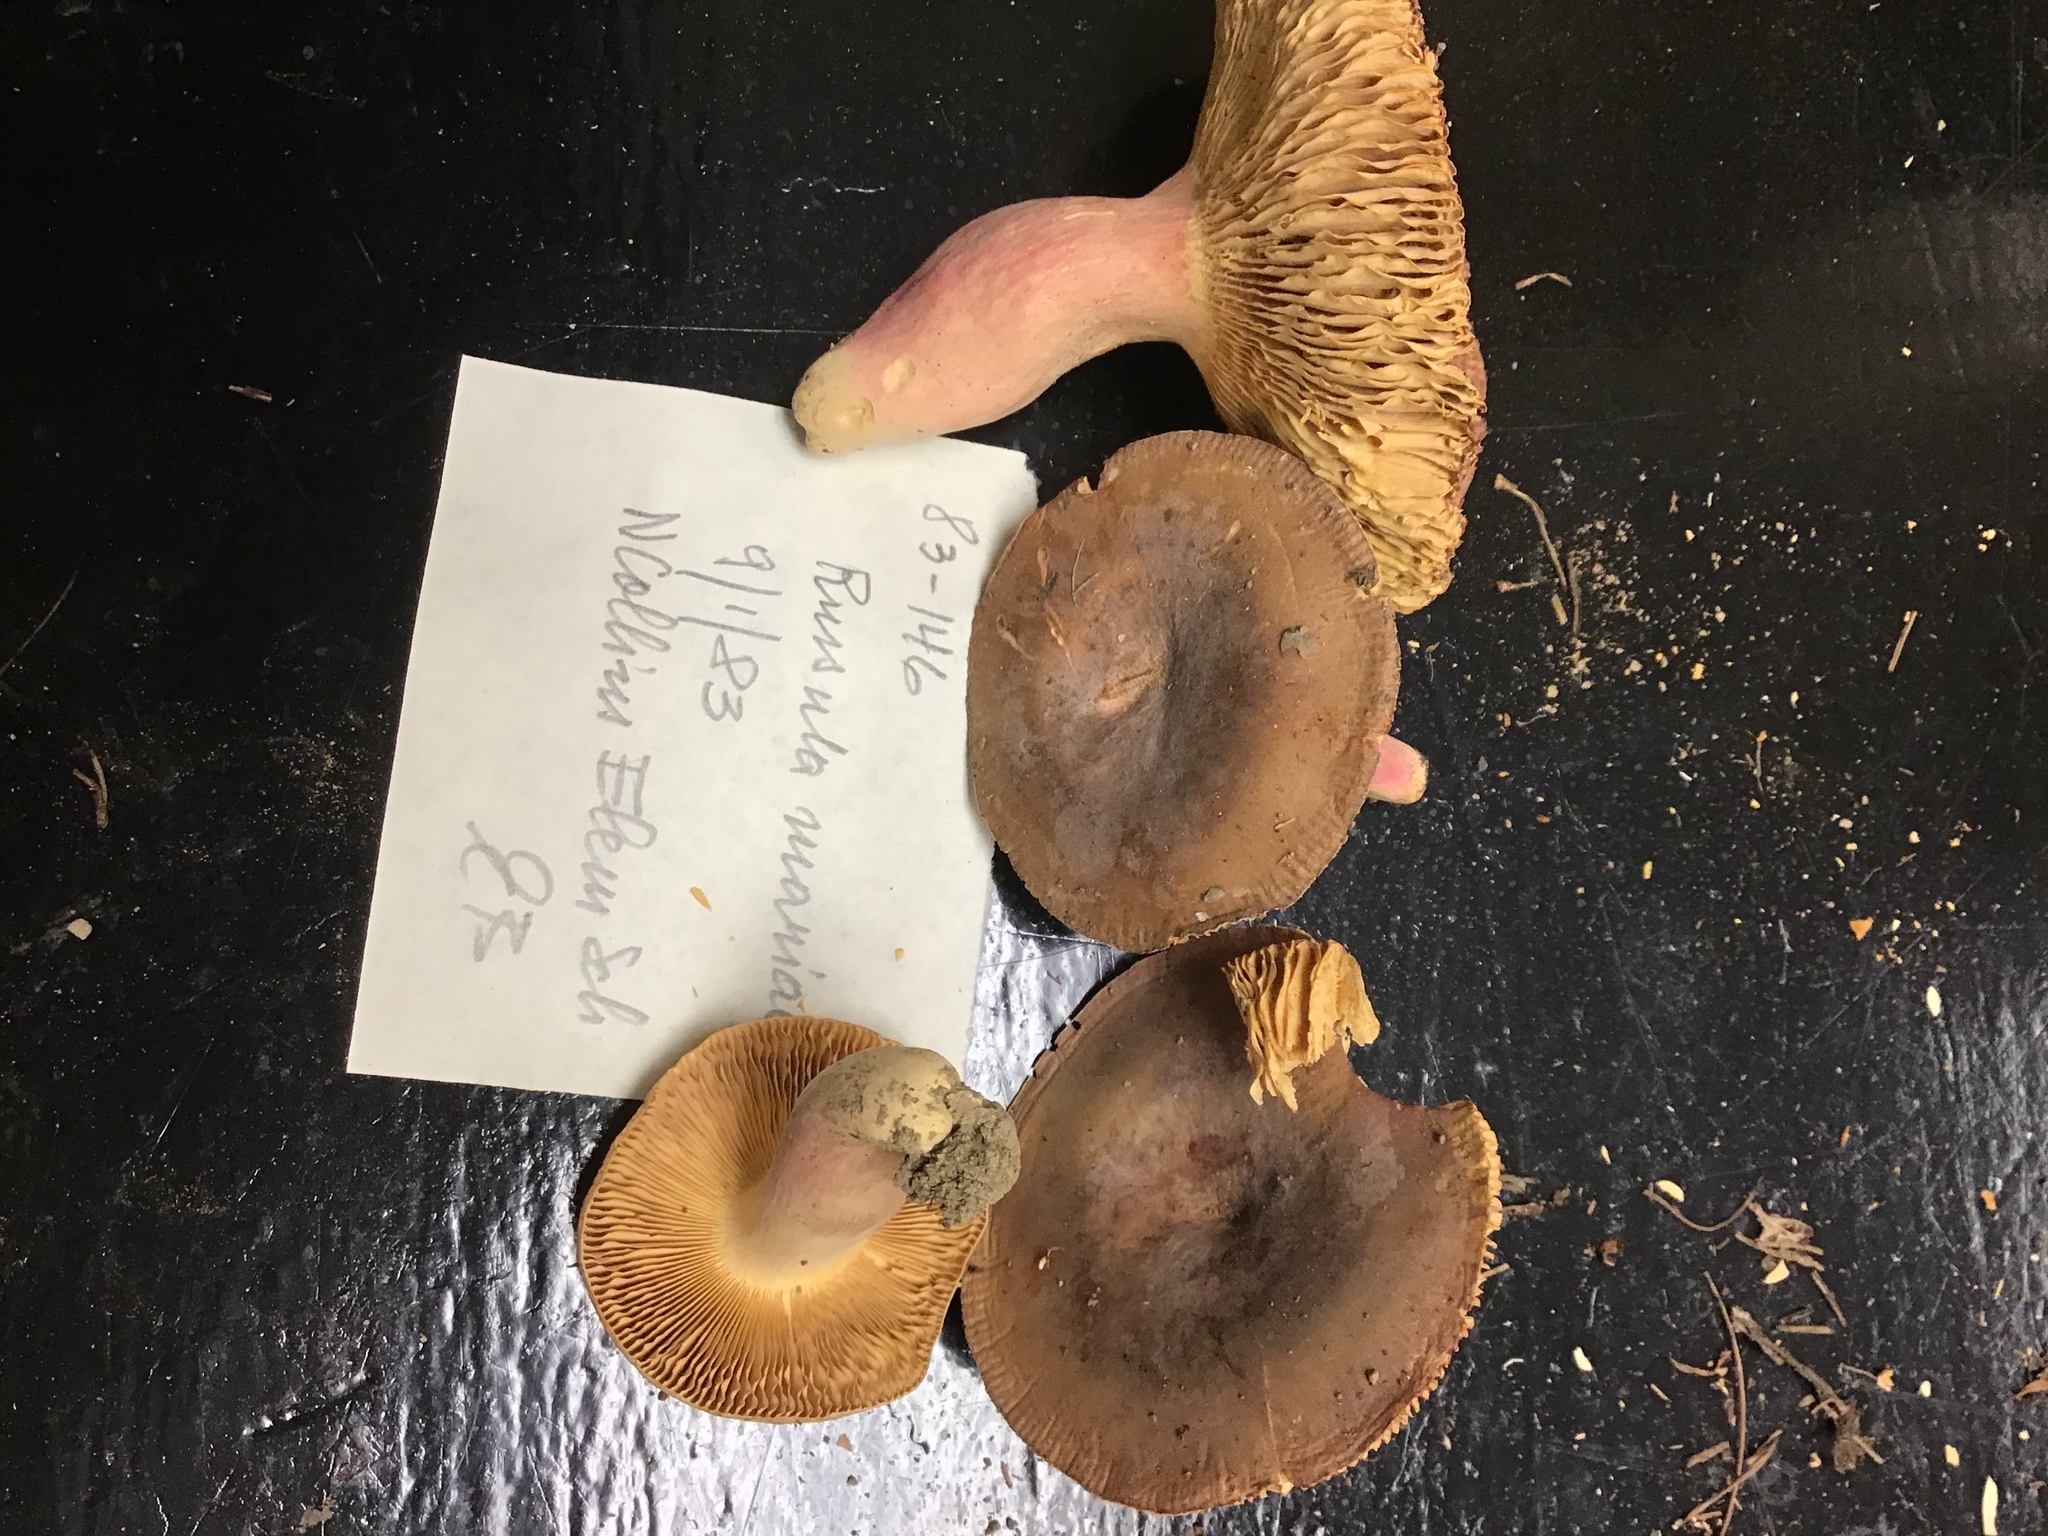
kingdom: Fungi
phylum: Basidiomycota
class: Agaricomycetes
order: Russulales
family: Russulaceae
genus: Russula
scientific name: Russula mariae
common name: Purple-bloom russula
